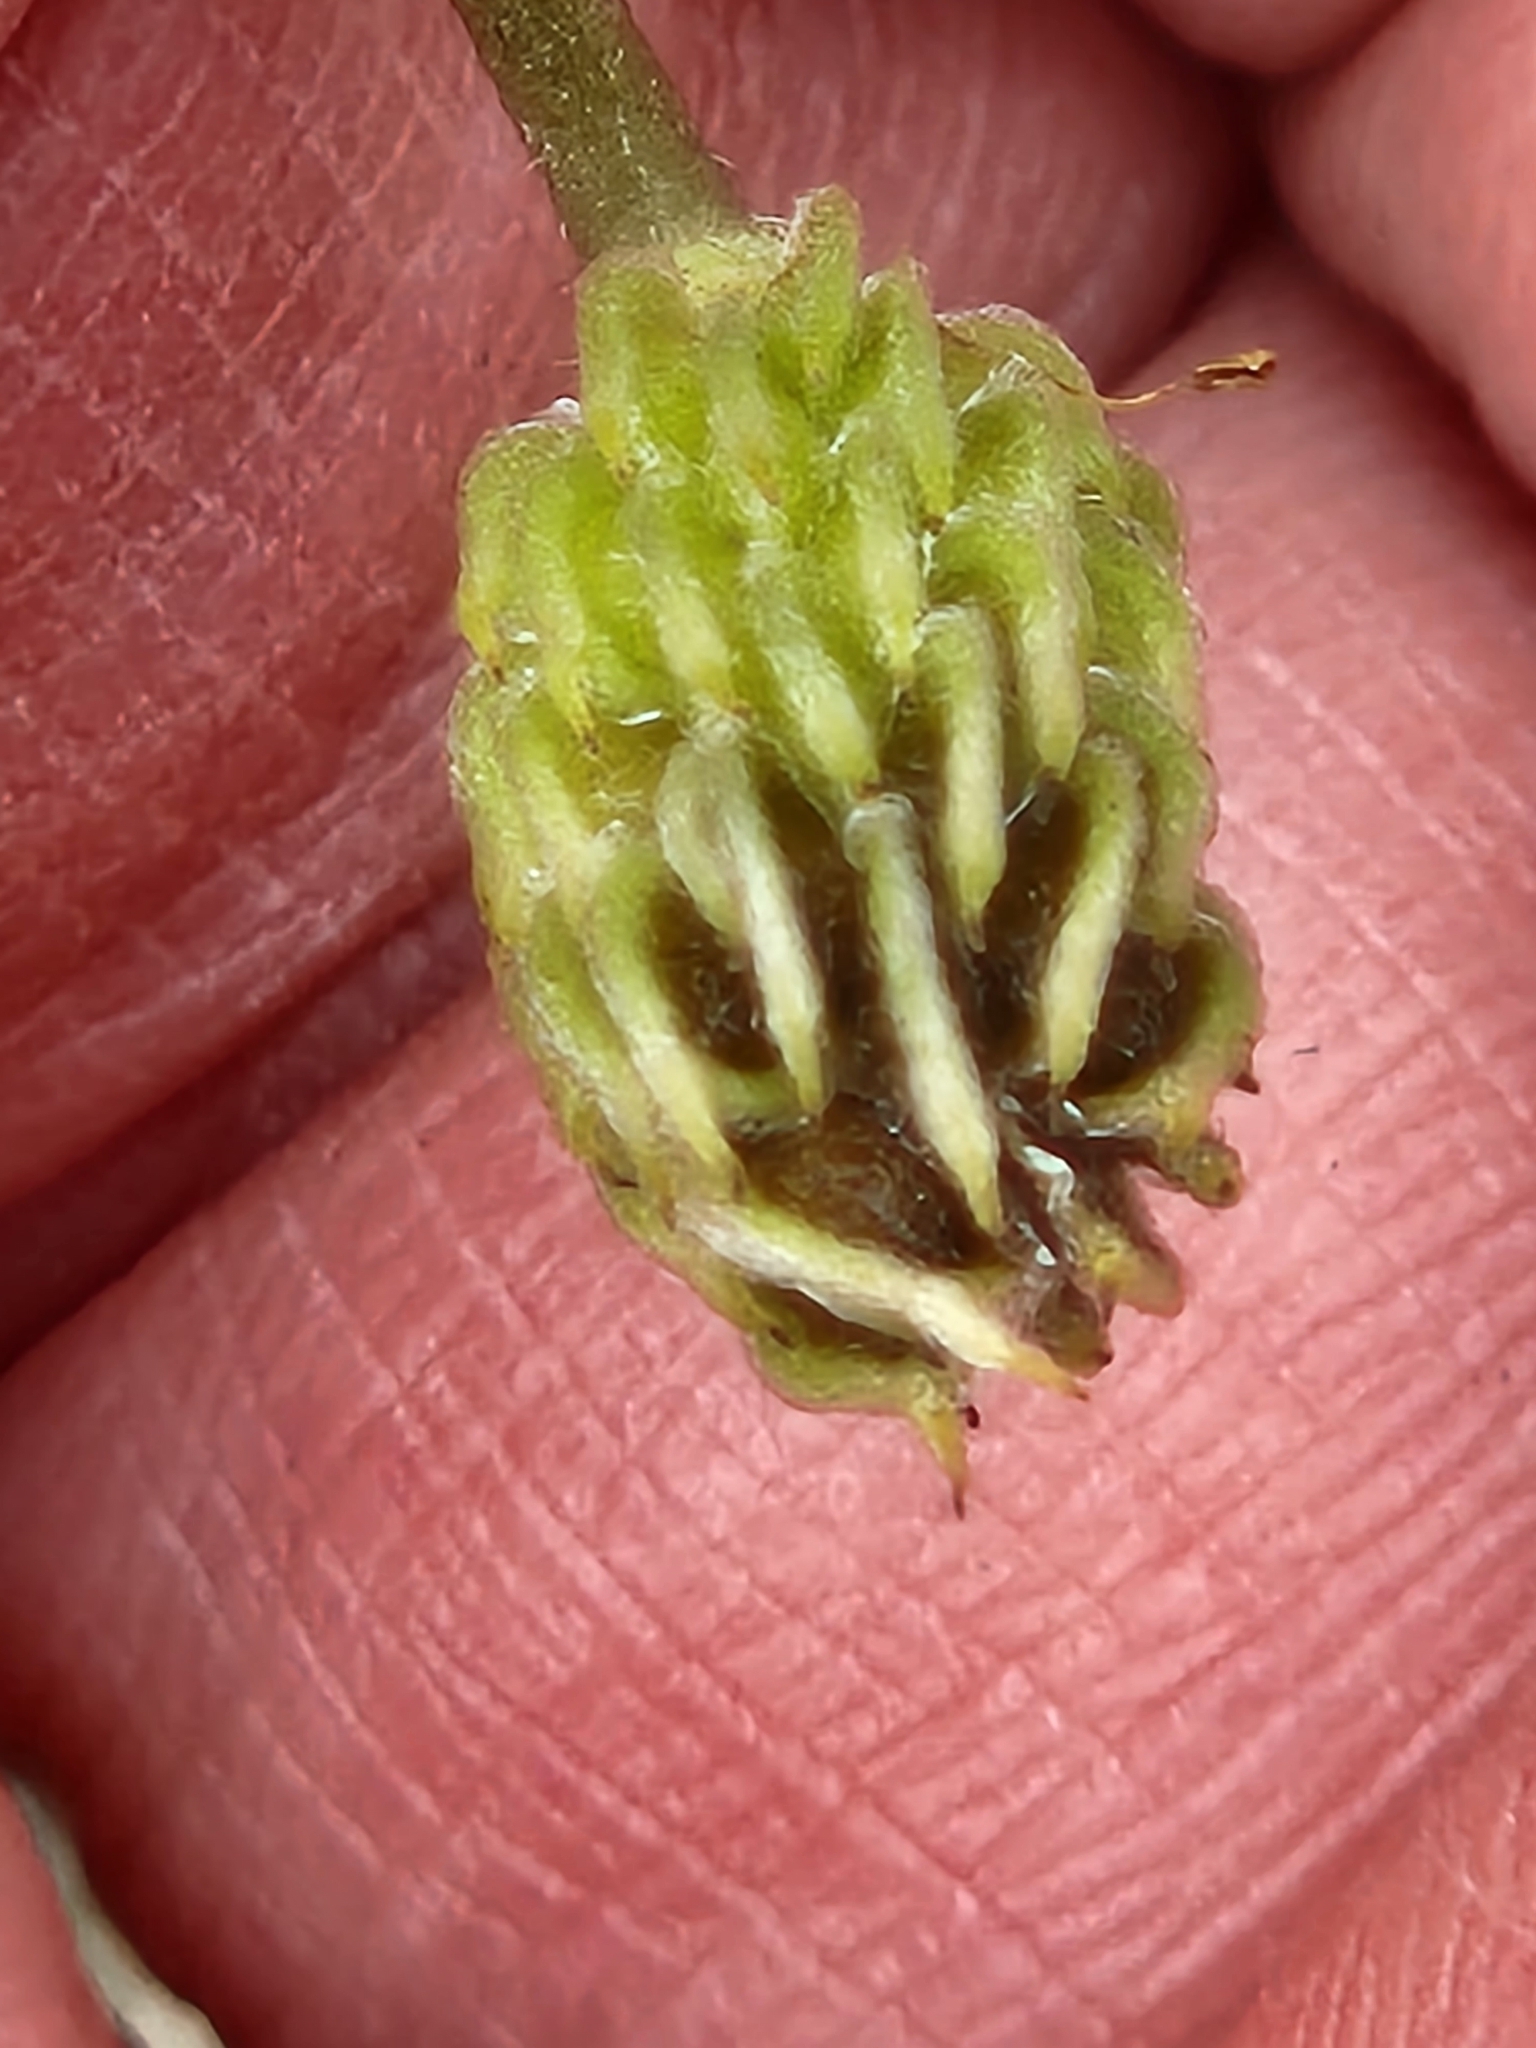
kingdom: Plantae
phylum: Tracheophyta
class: Magnoliopsida
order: Ranunculales
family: Ranunculaceae
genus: Anemone
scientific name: Anemone edwardsiana
